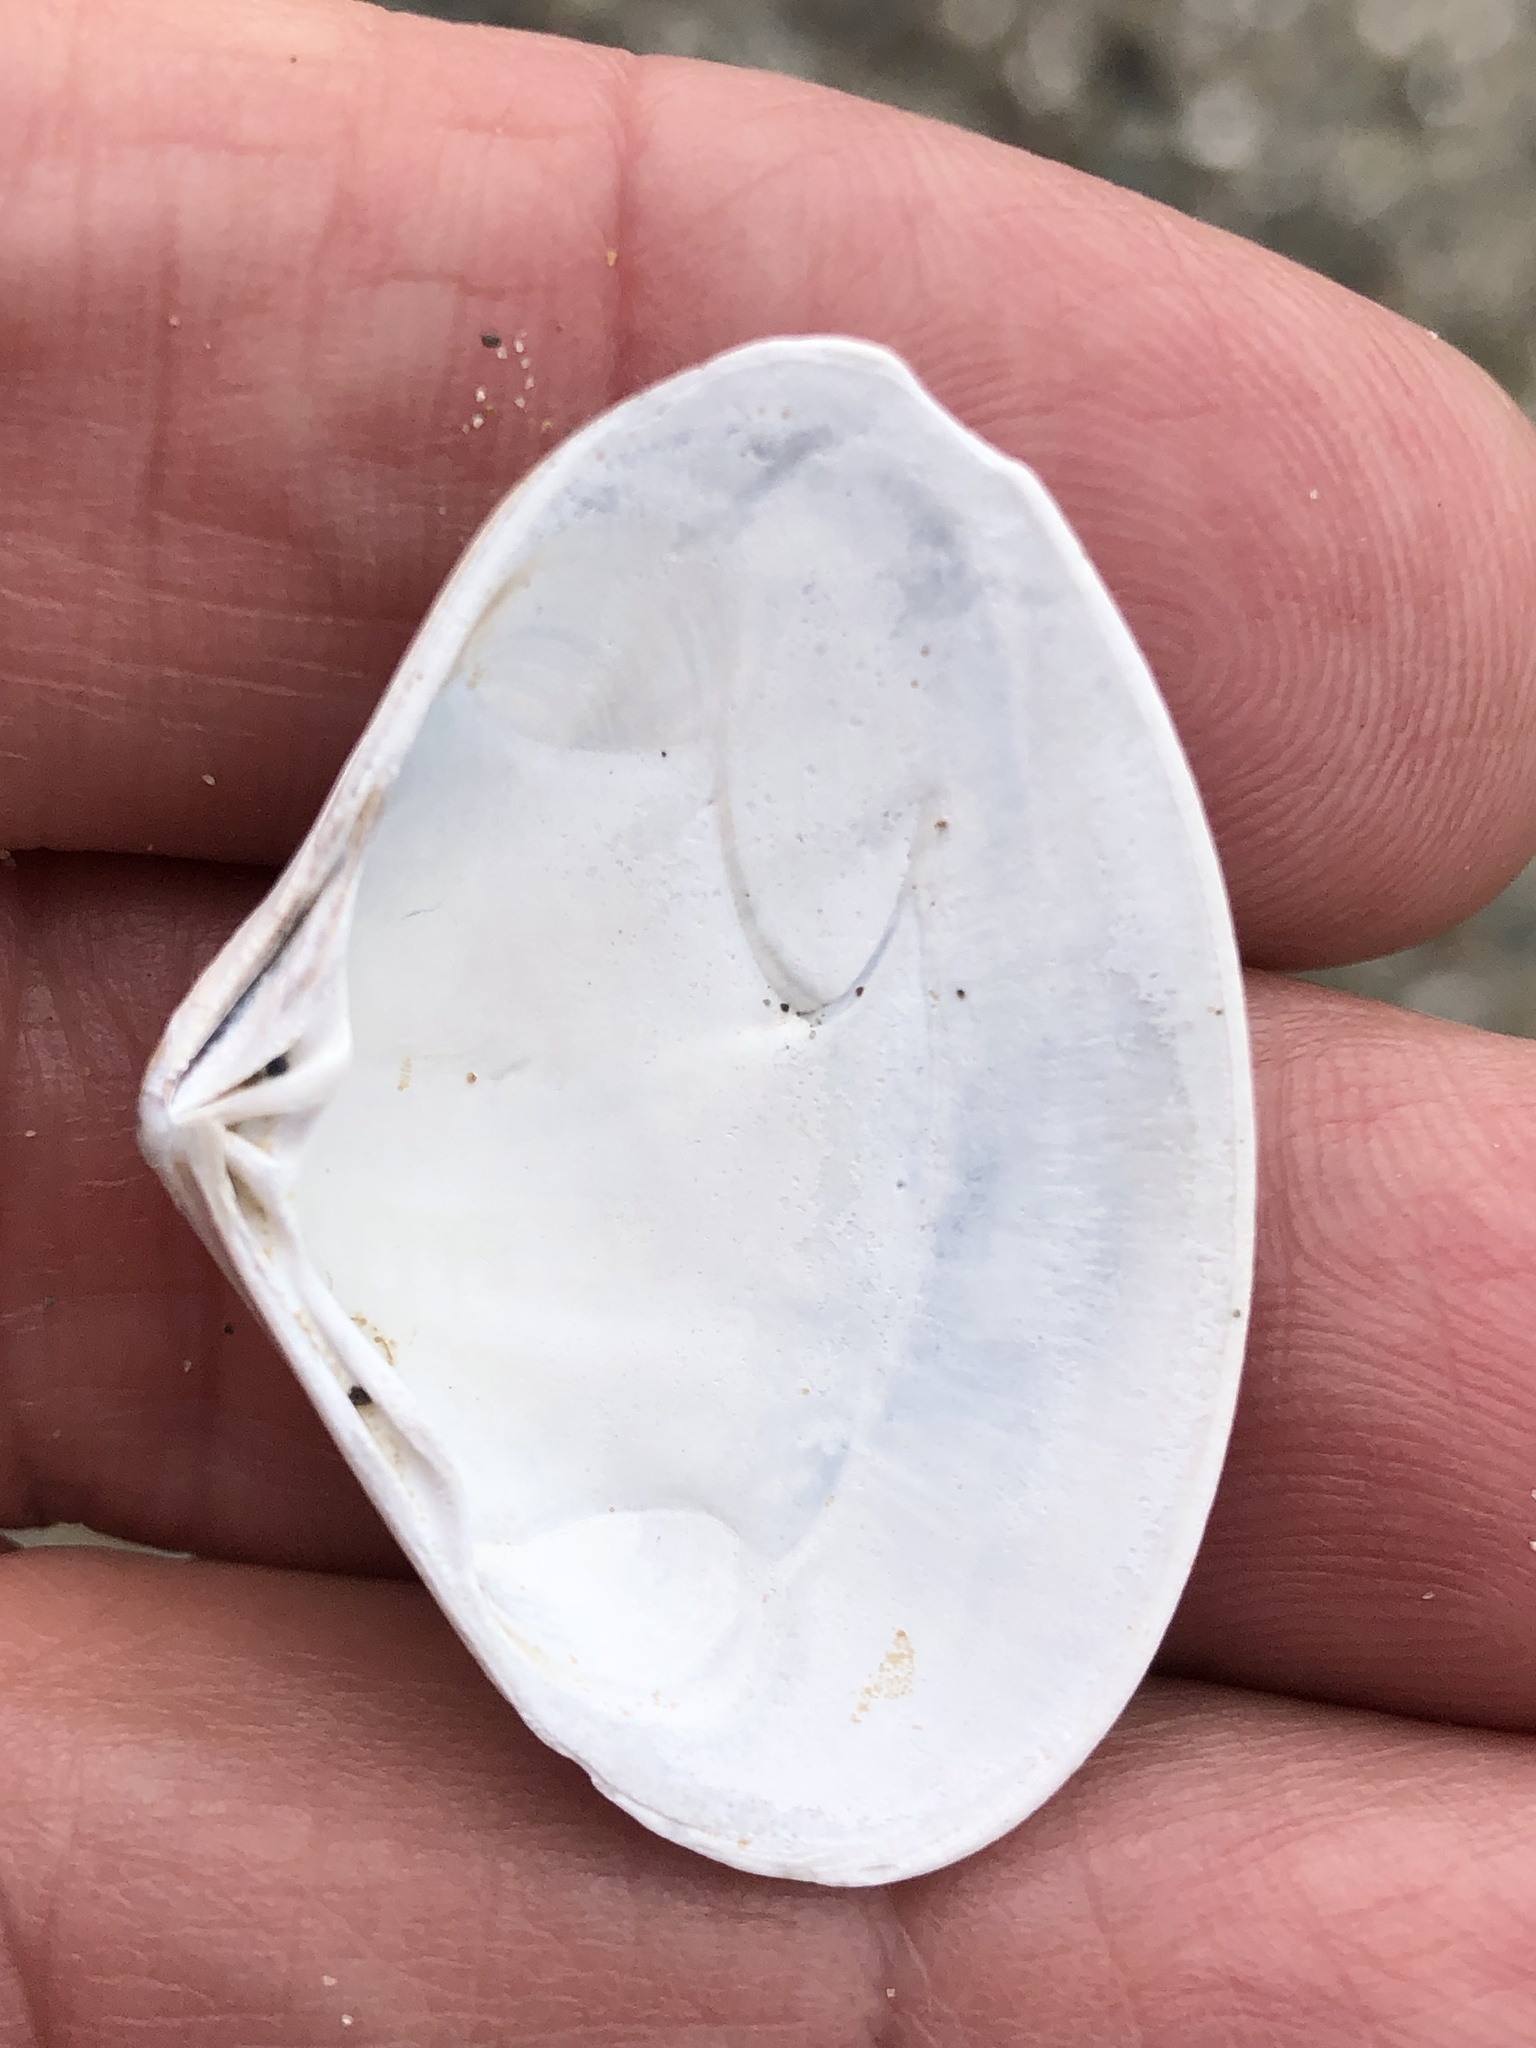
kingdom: Animalia
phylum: Mollusca
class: Bivalvia
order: Venerida
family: Veneridae
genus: Tivela
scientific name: Tivela stultorum
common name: Pismo clam
